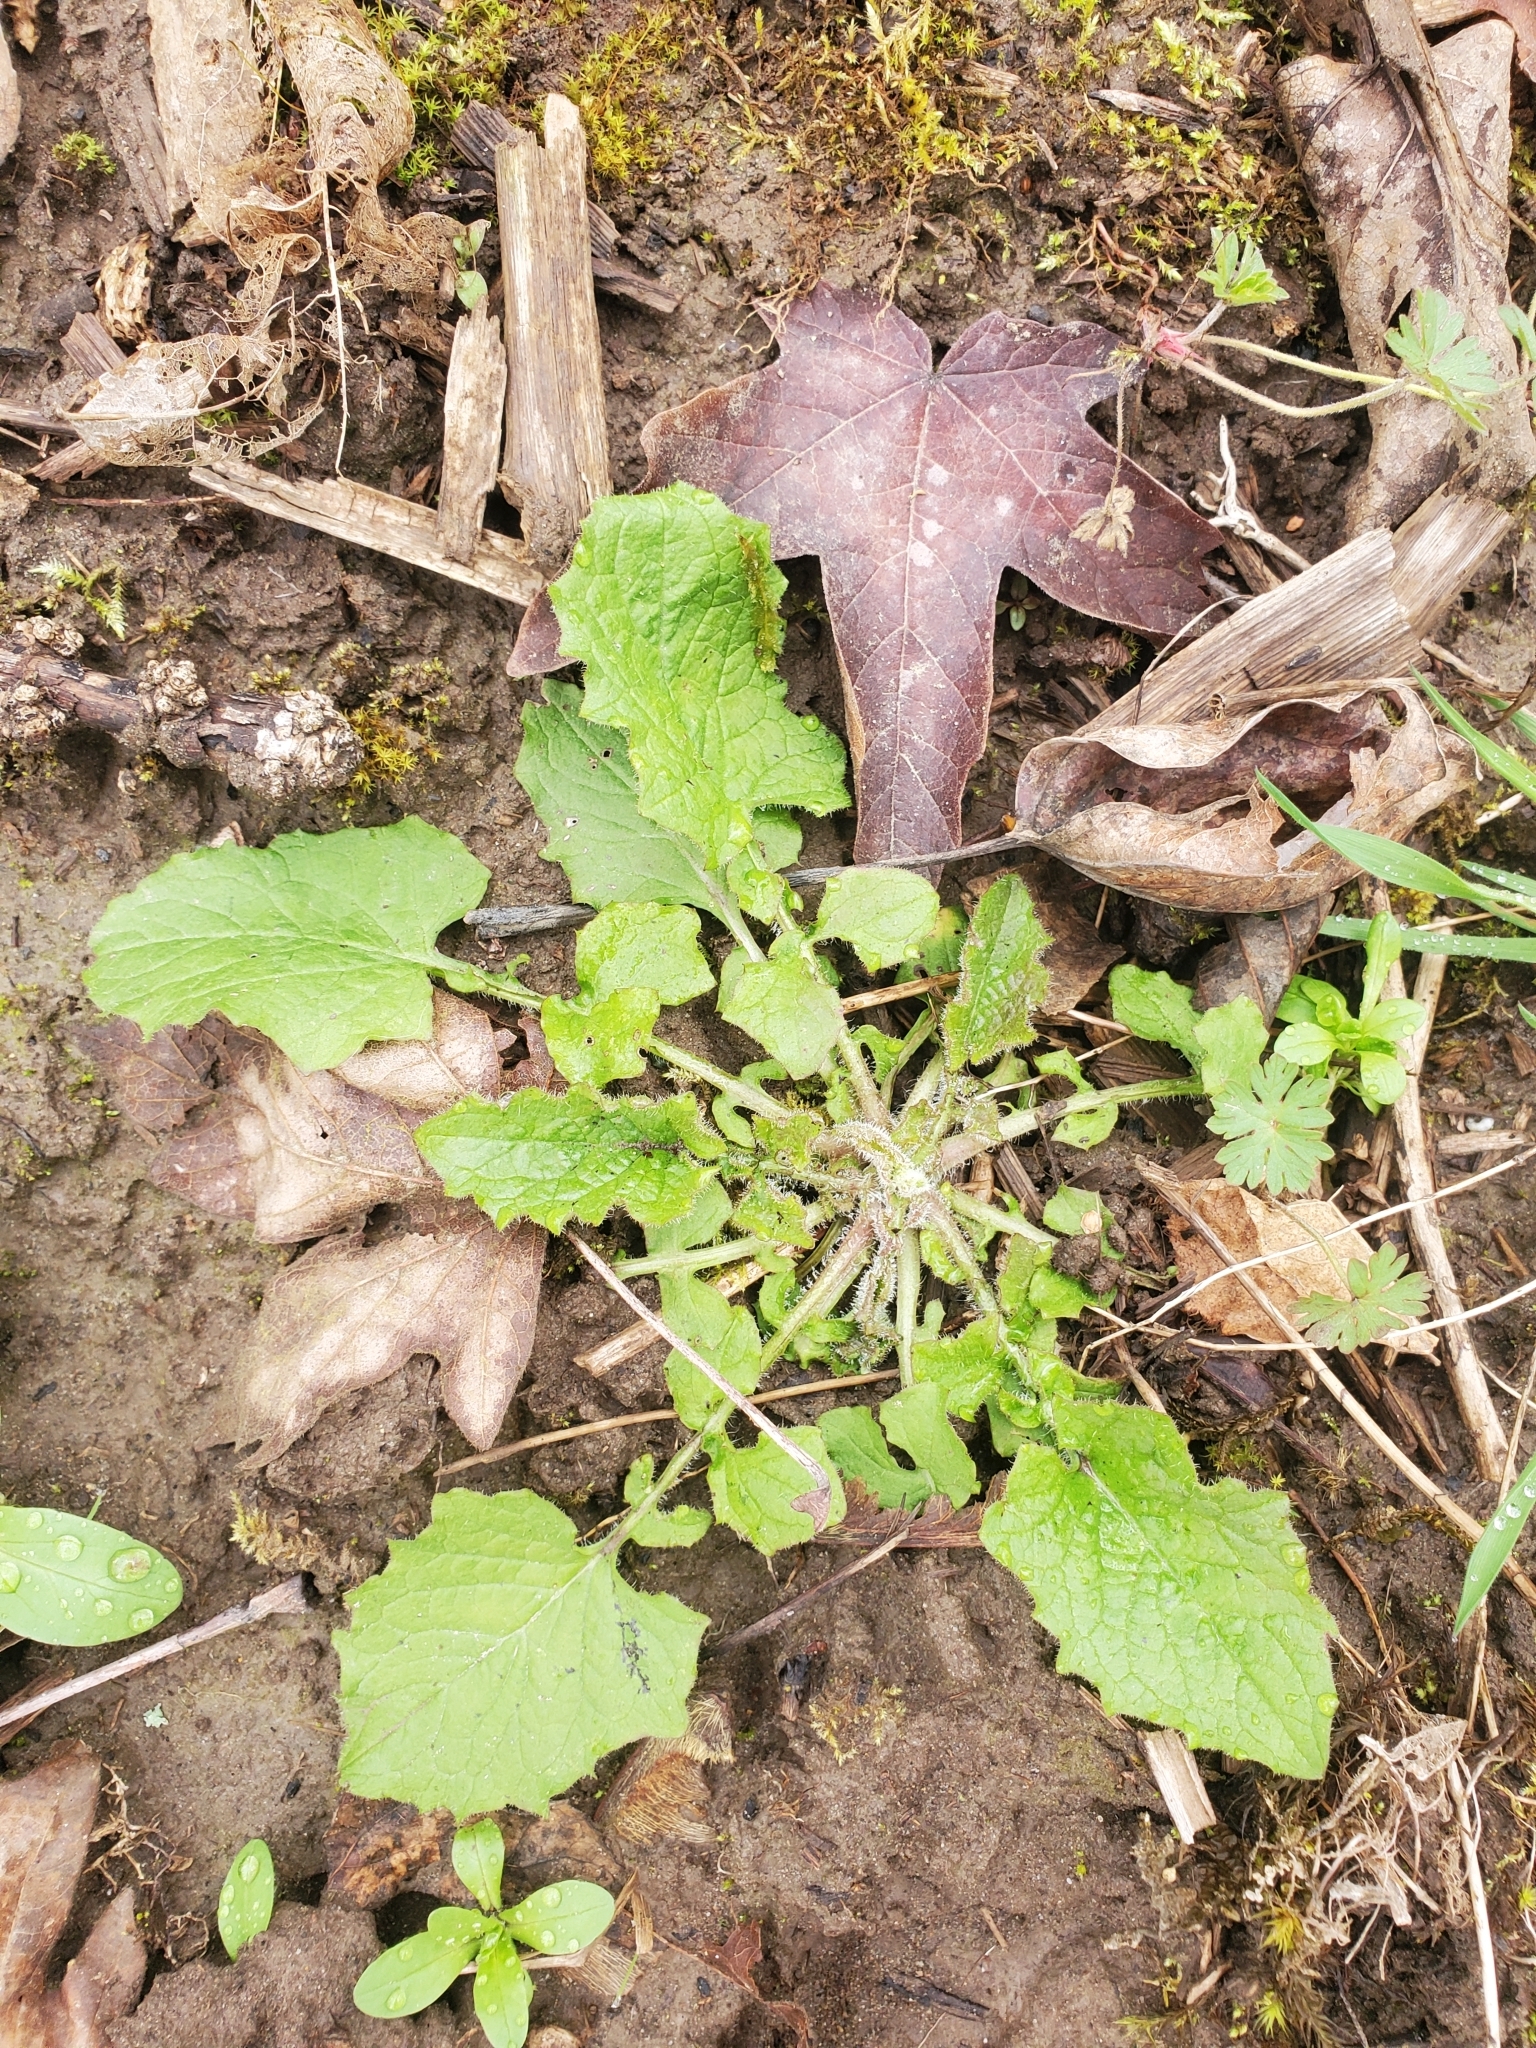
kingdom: Plantae
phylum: Tracheophyta
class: Magnoliopsida
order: Asterales
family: Asteraceae
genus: Lapsana
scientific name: Lapsana communis
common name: Nipplewort
